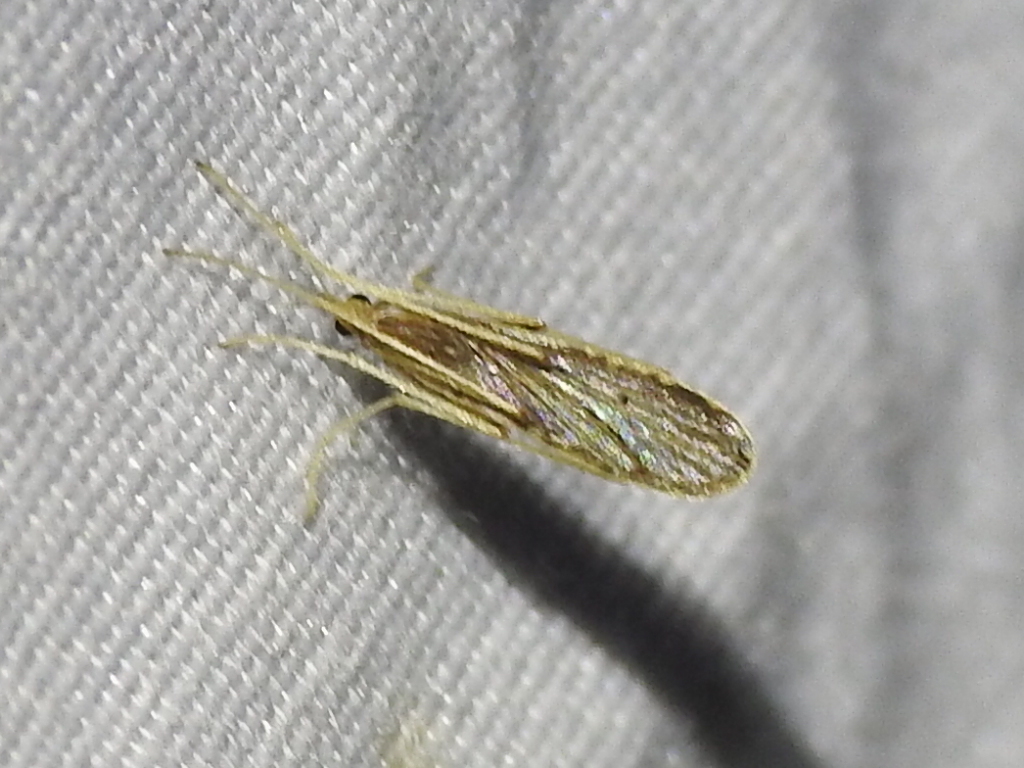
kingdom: Animalia
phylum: Arthropoda
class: Insecta
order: Diptera
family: Limoniidae
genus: Erioptera
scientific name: Erioptera tantilla
